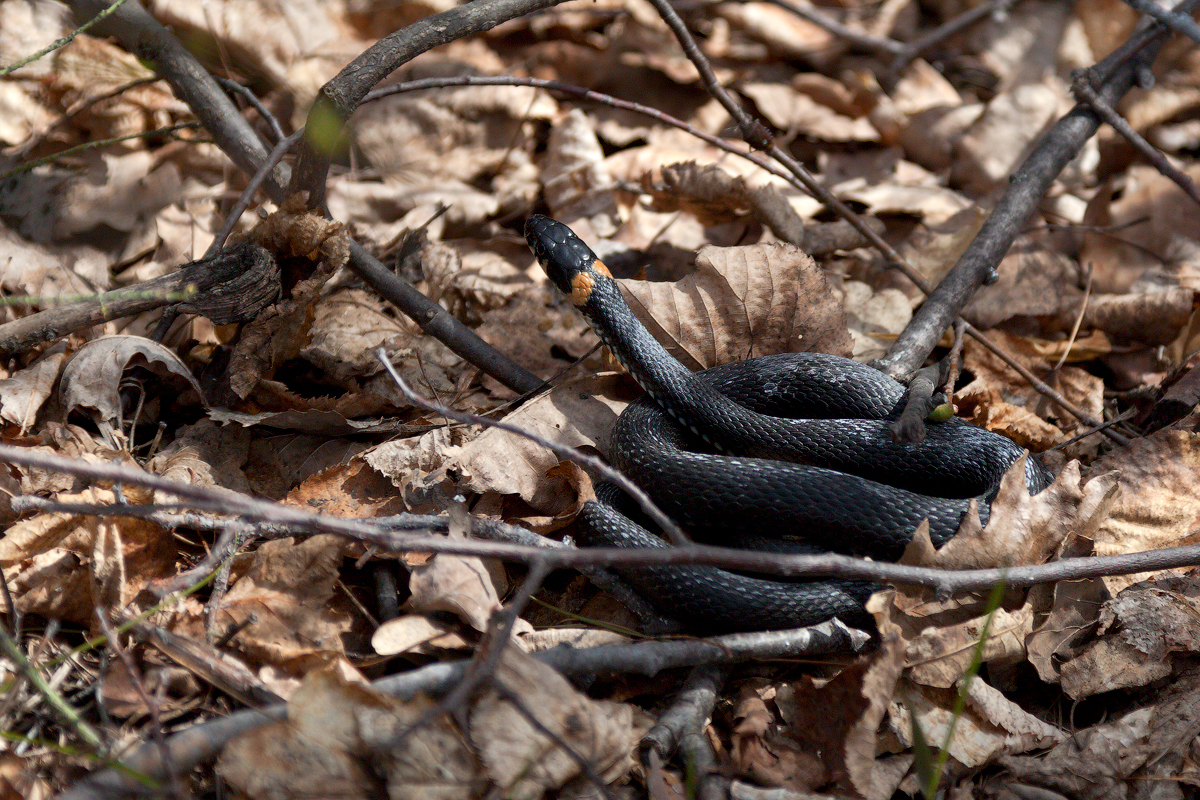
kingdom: Animalia
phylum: Chordata
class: Squamata
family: Colubridae
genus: Natrix
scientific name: Natrix natrix
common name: Grass snake
